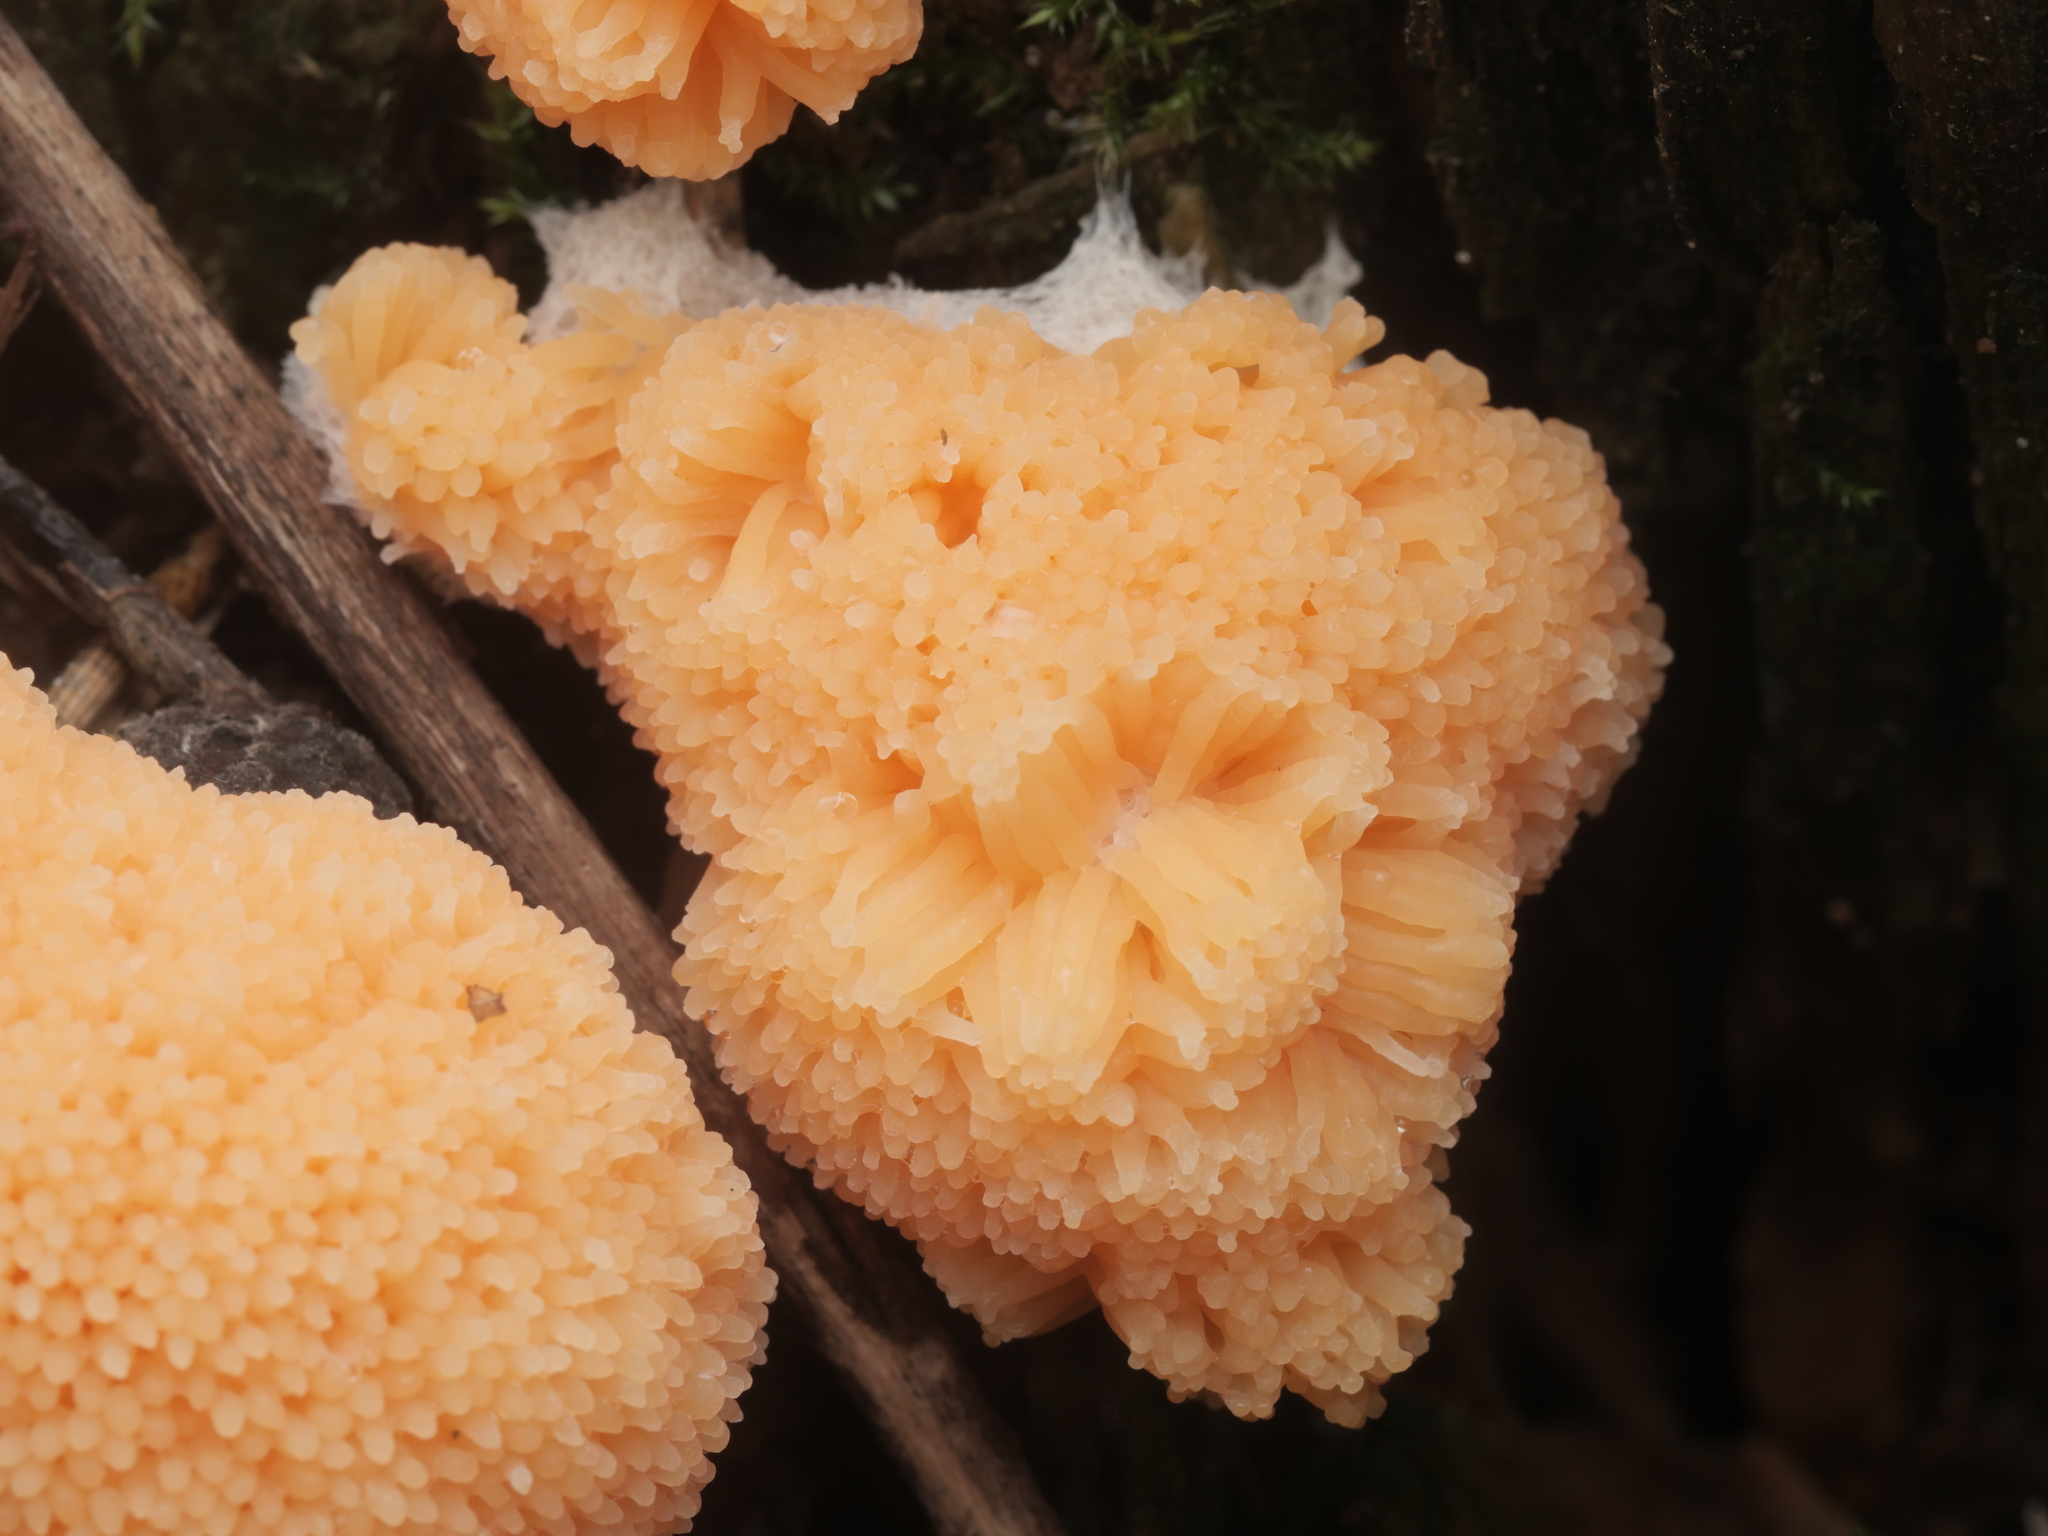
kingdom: Protozoa
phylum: Mycetozoa
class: Myxomycetes
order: Cribrariales
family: Tubiferaceae
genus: Tubifera
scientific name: Tubifera
